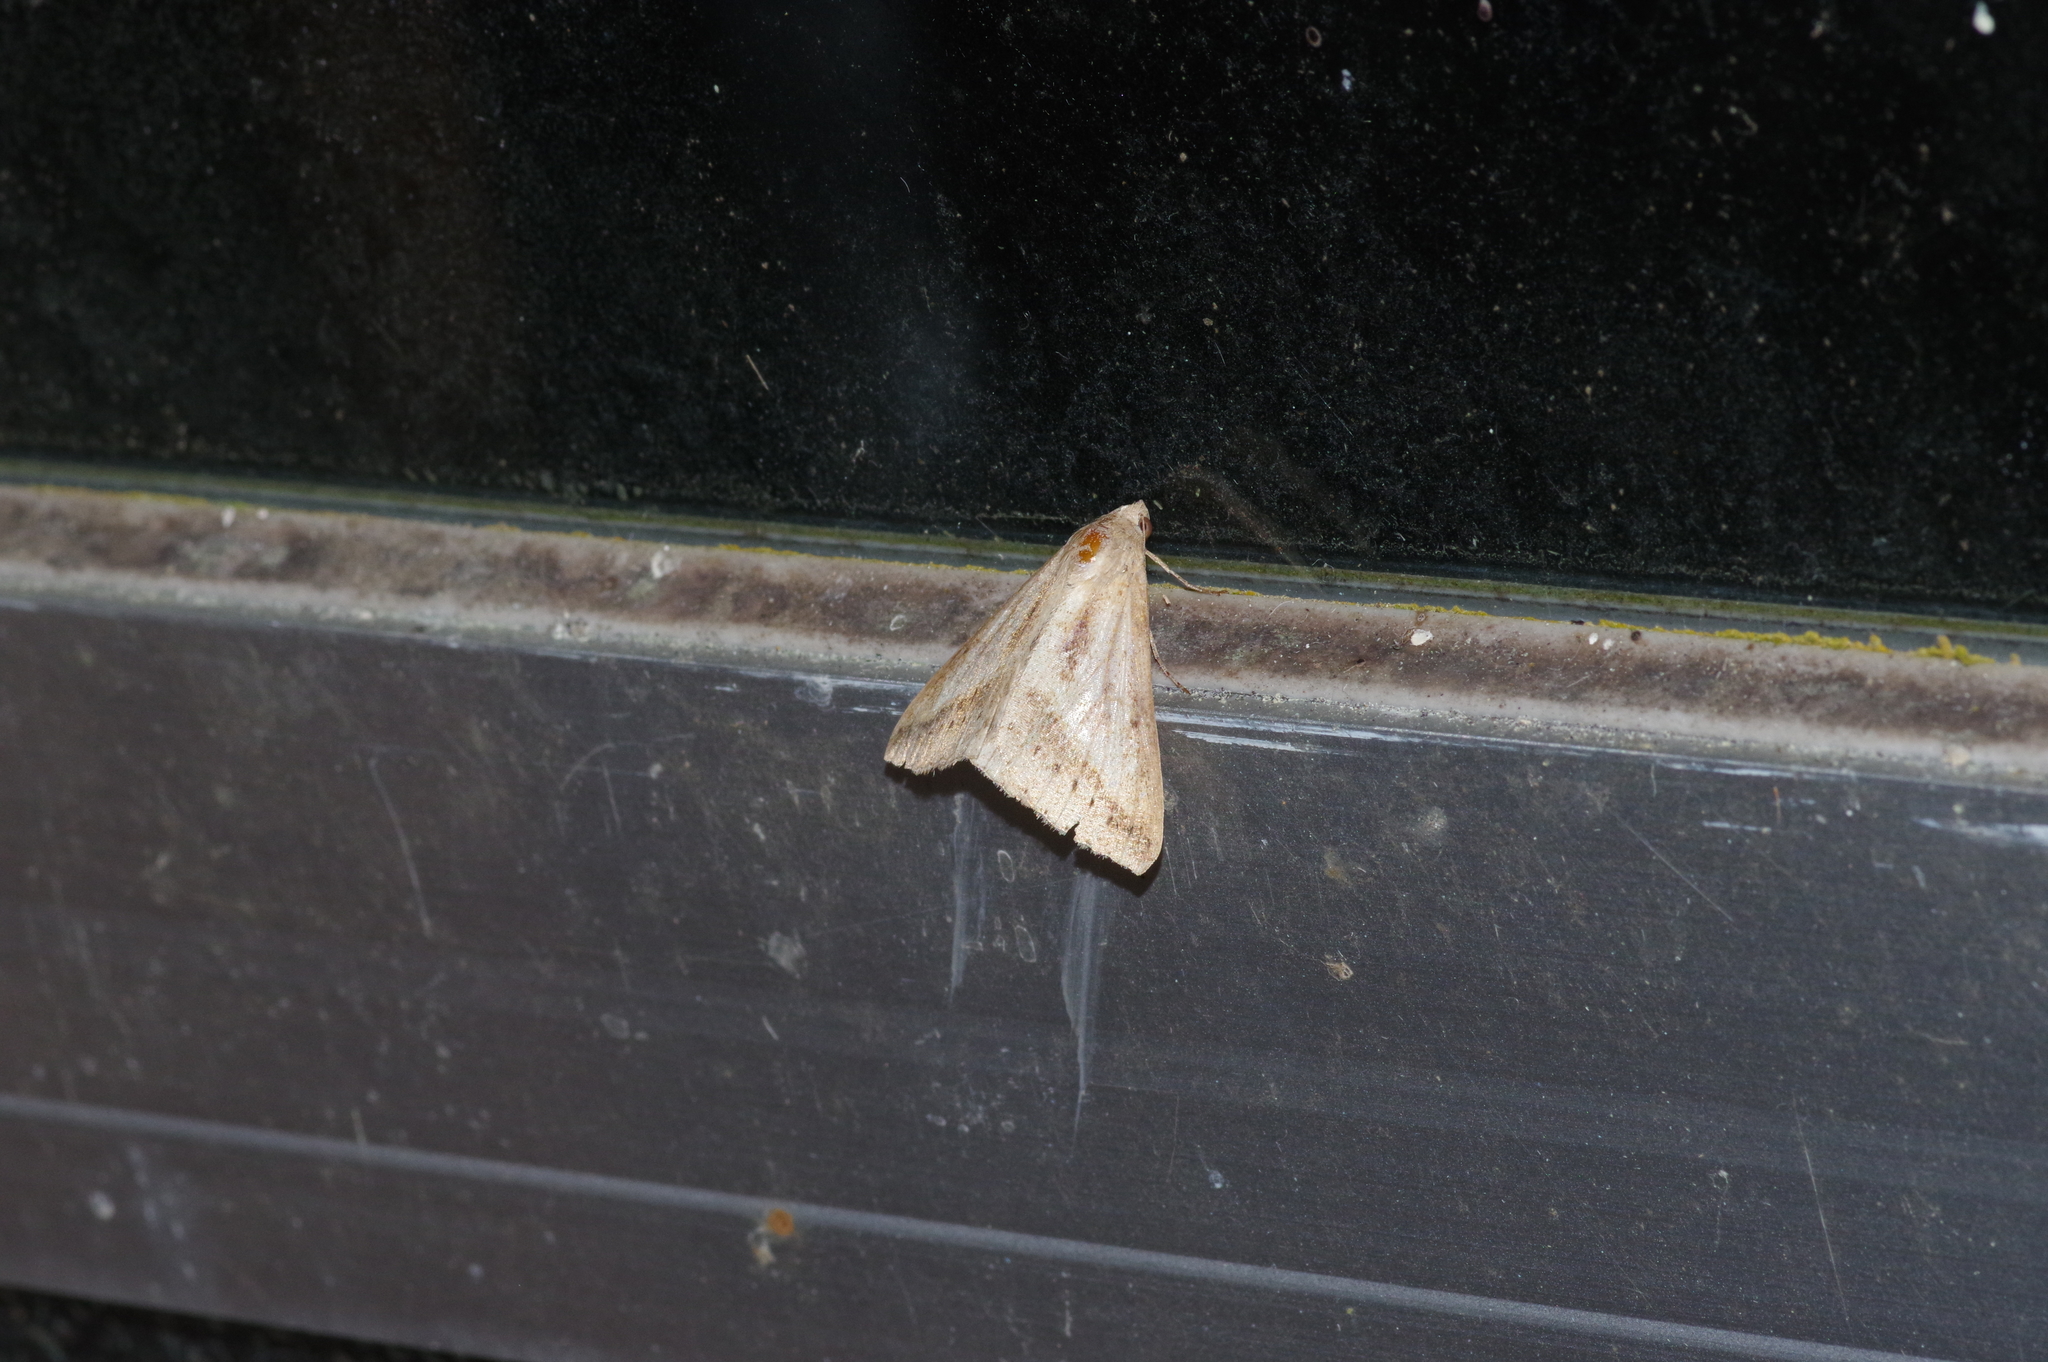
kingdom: Animalia
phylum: Arthropoda
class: Insecta
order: Lepidoptera
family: Erebidae
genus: Mocis
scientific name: Mocis frugalis
